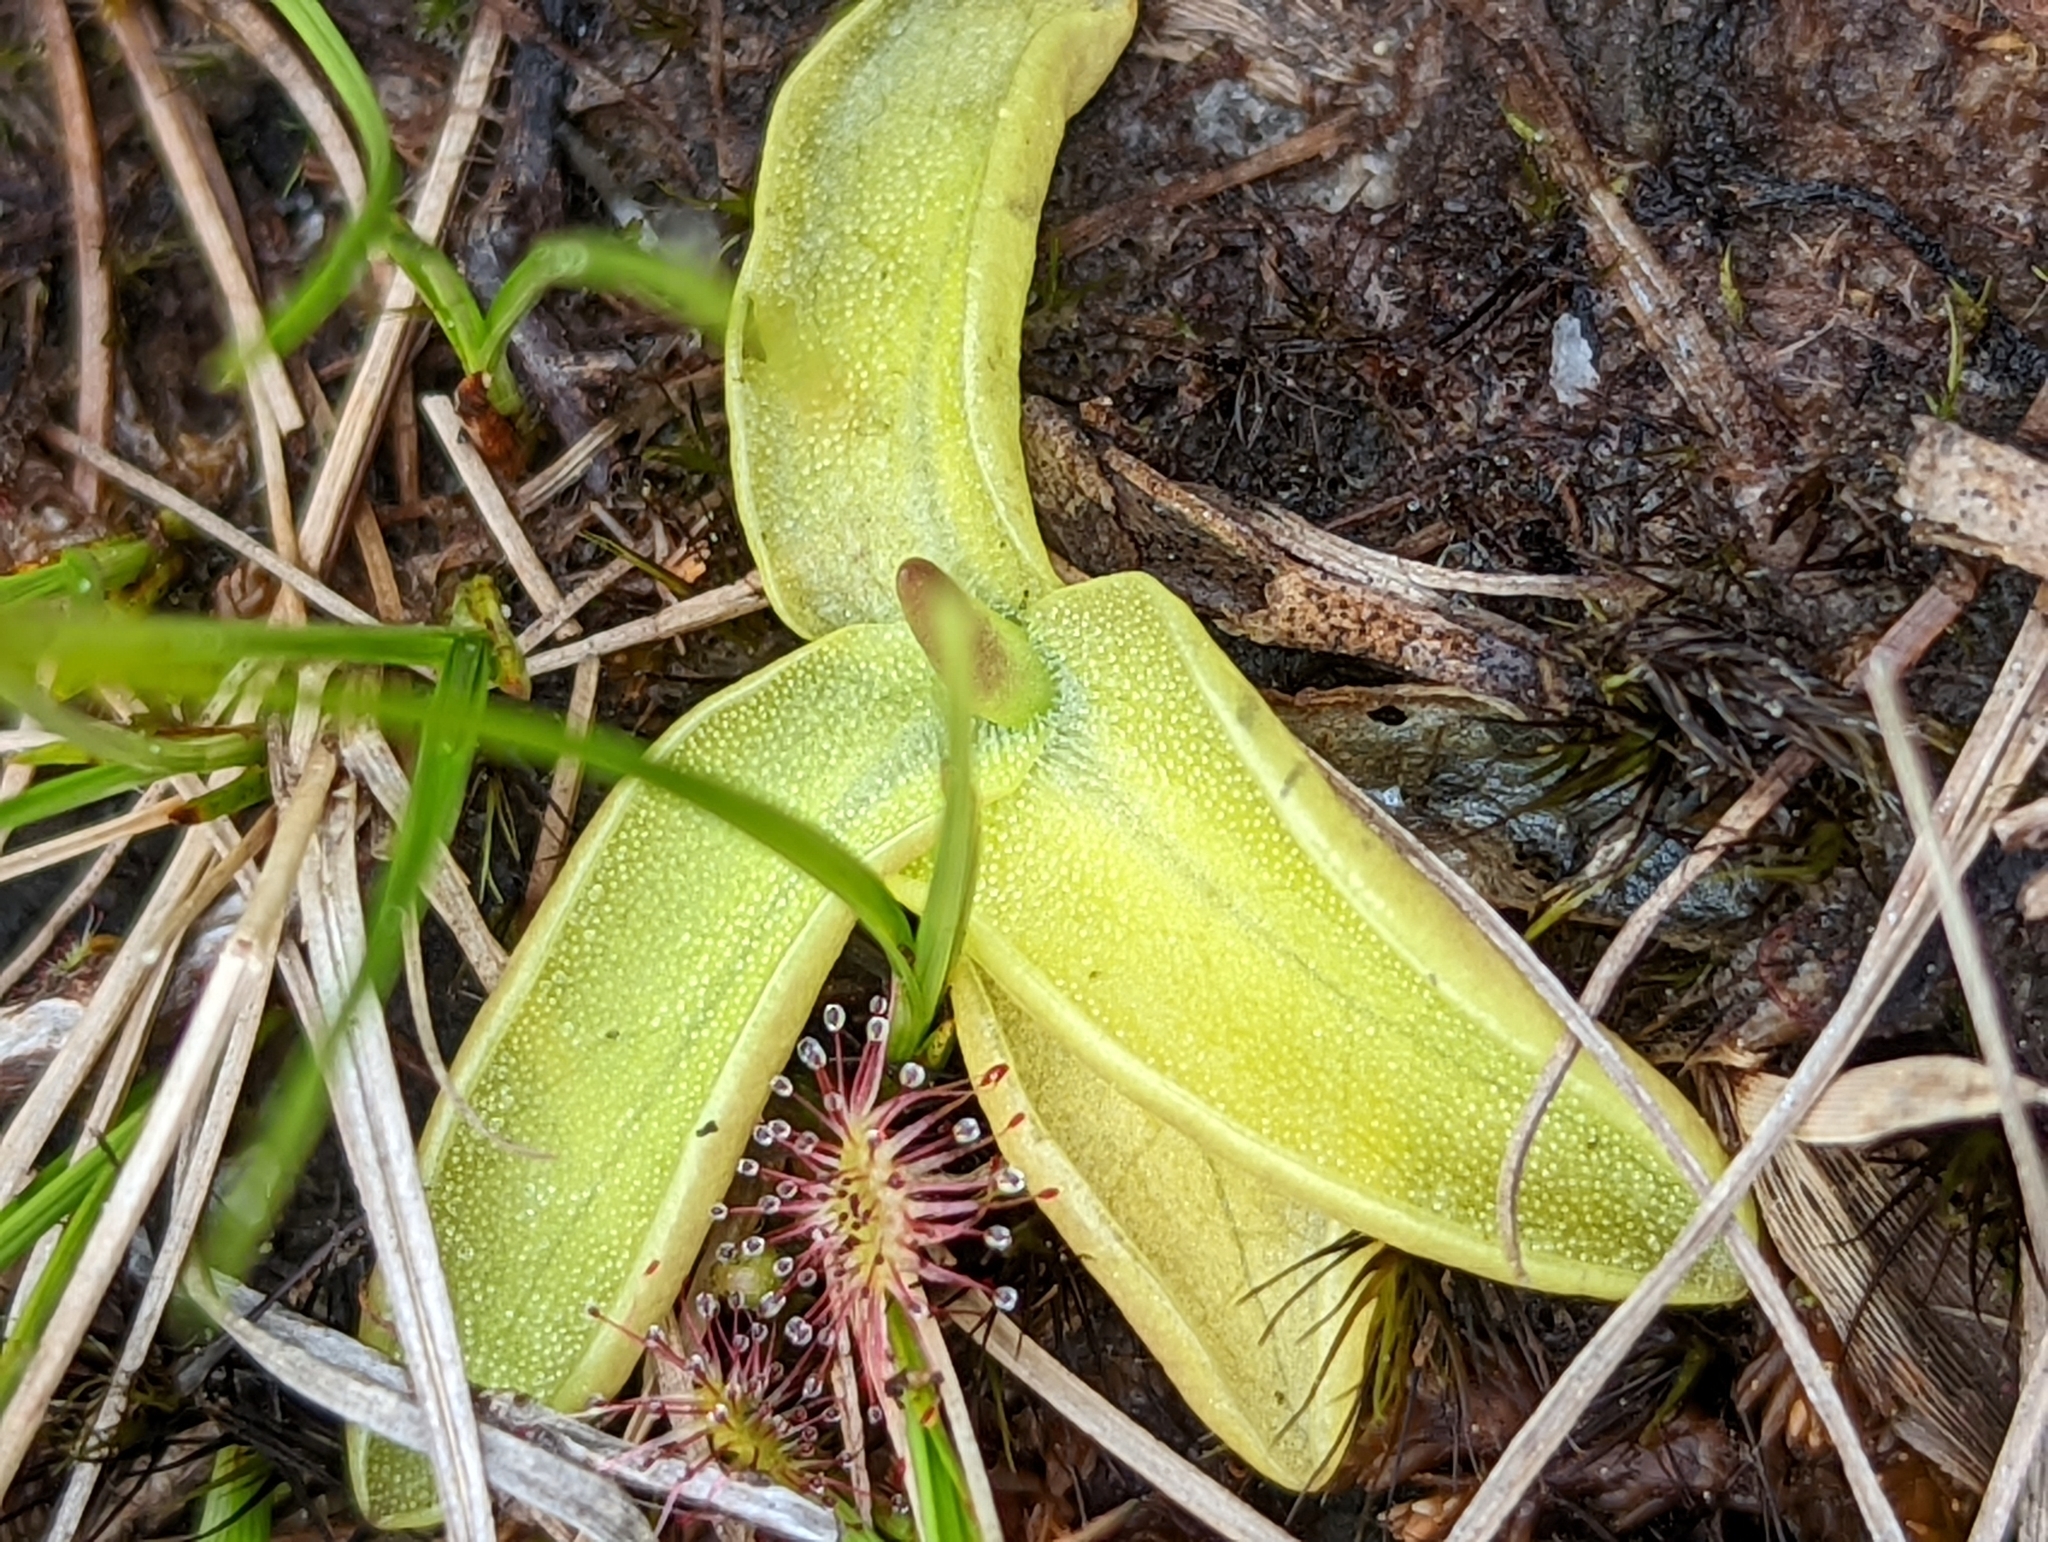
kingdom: Plantae
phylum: Tracheophyta
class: Magnoliopsida
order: Lamiales
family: Lentibulariaceae
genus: Pinguicula
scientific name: Pinguicula macroceras
